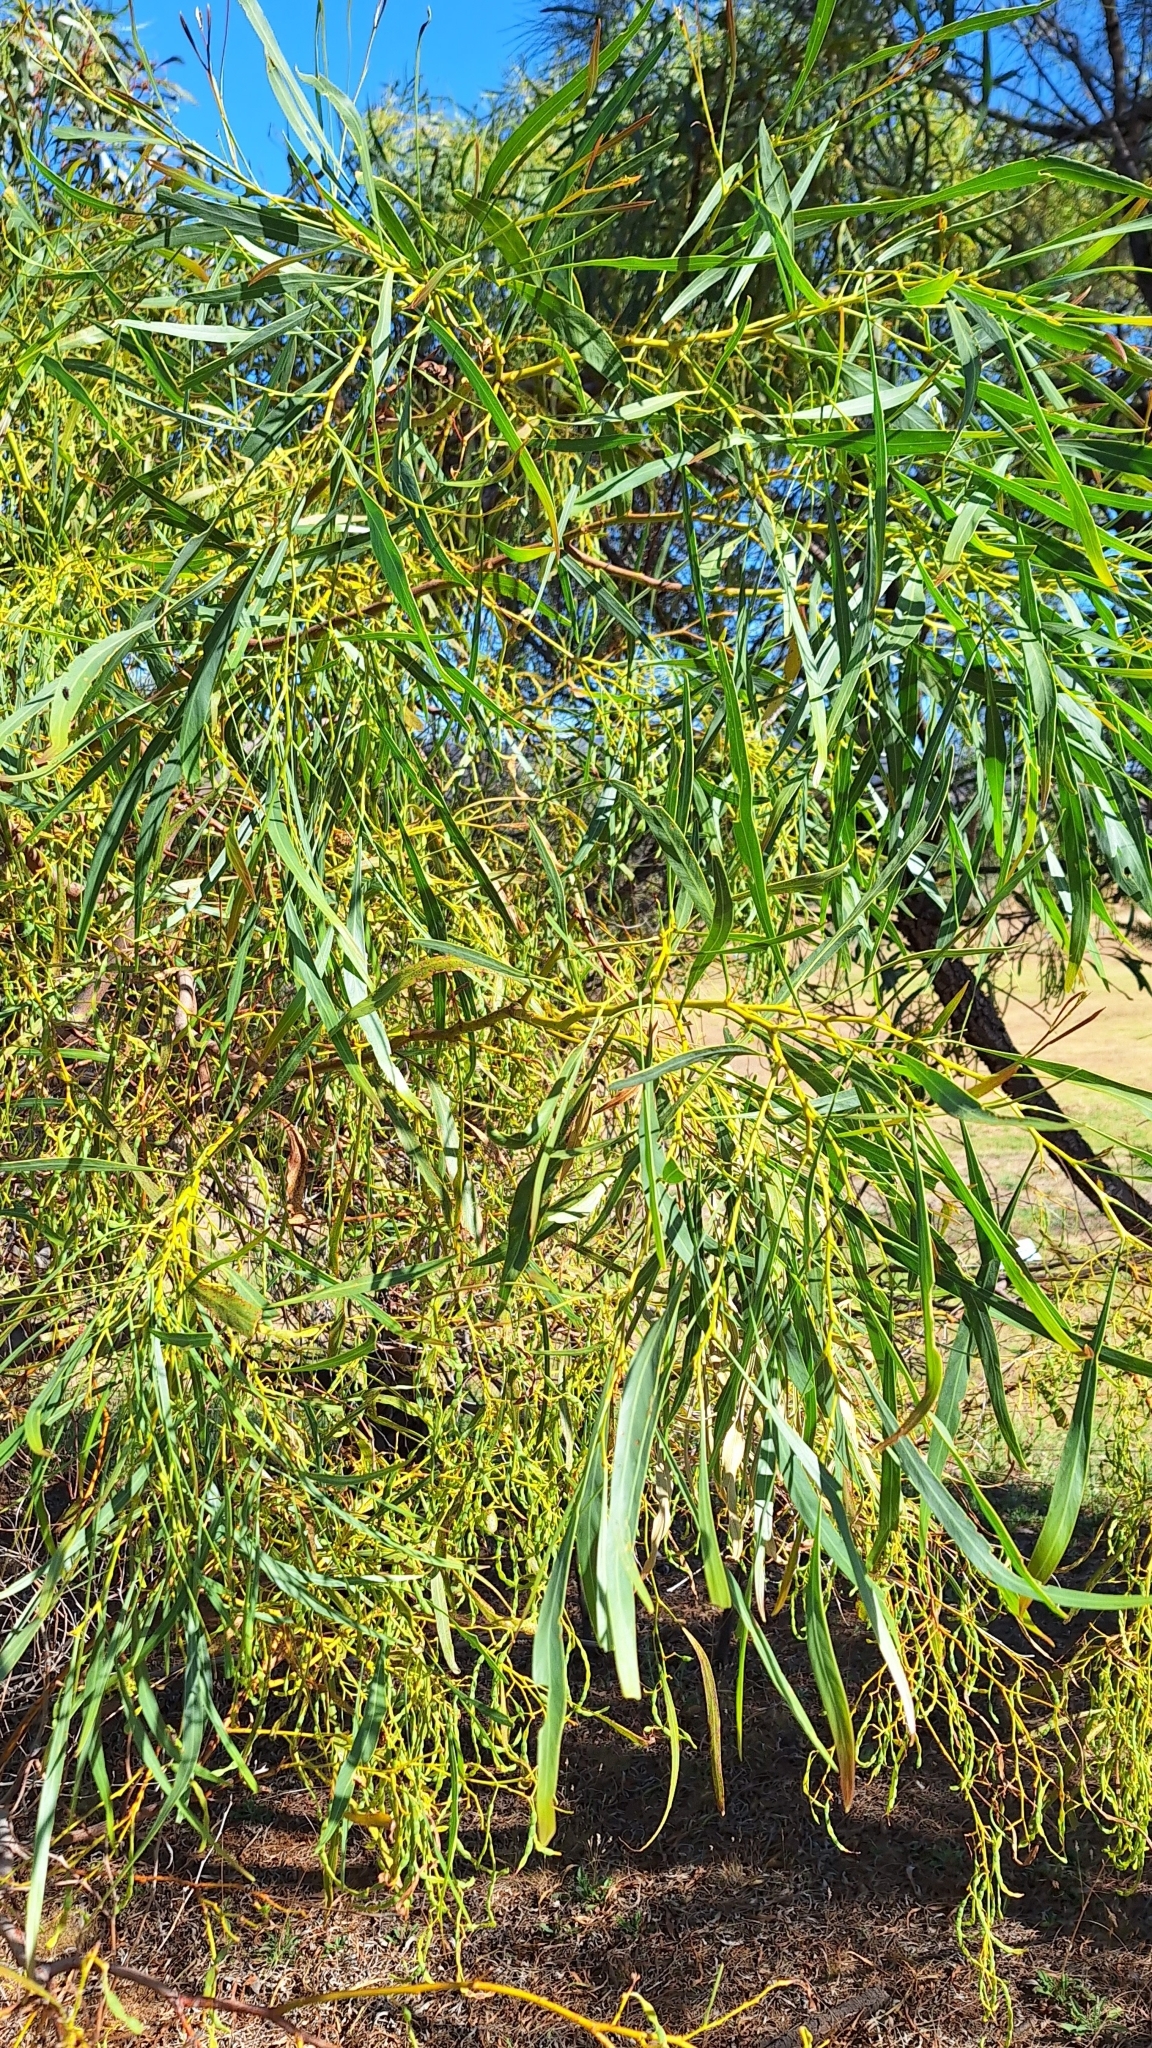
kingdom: Plantae
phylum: Tracheophyta
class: Magnoliopsida
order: Fabales
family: Fabaceae
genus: Acacia
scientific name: Acacia saligna
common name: Orange wattle
